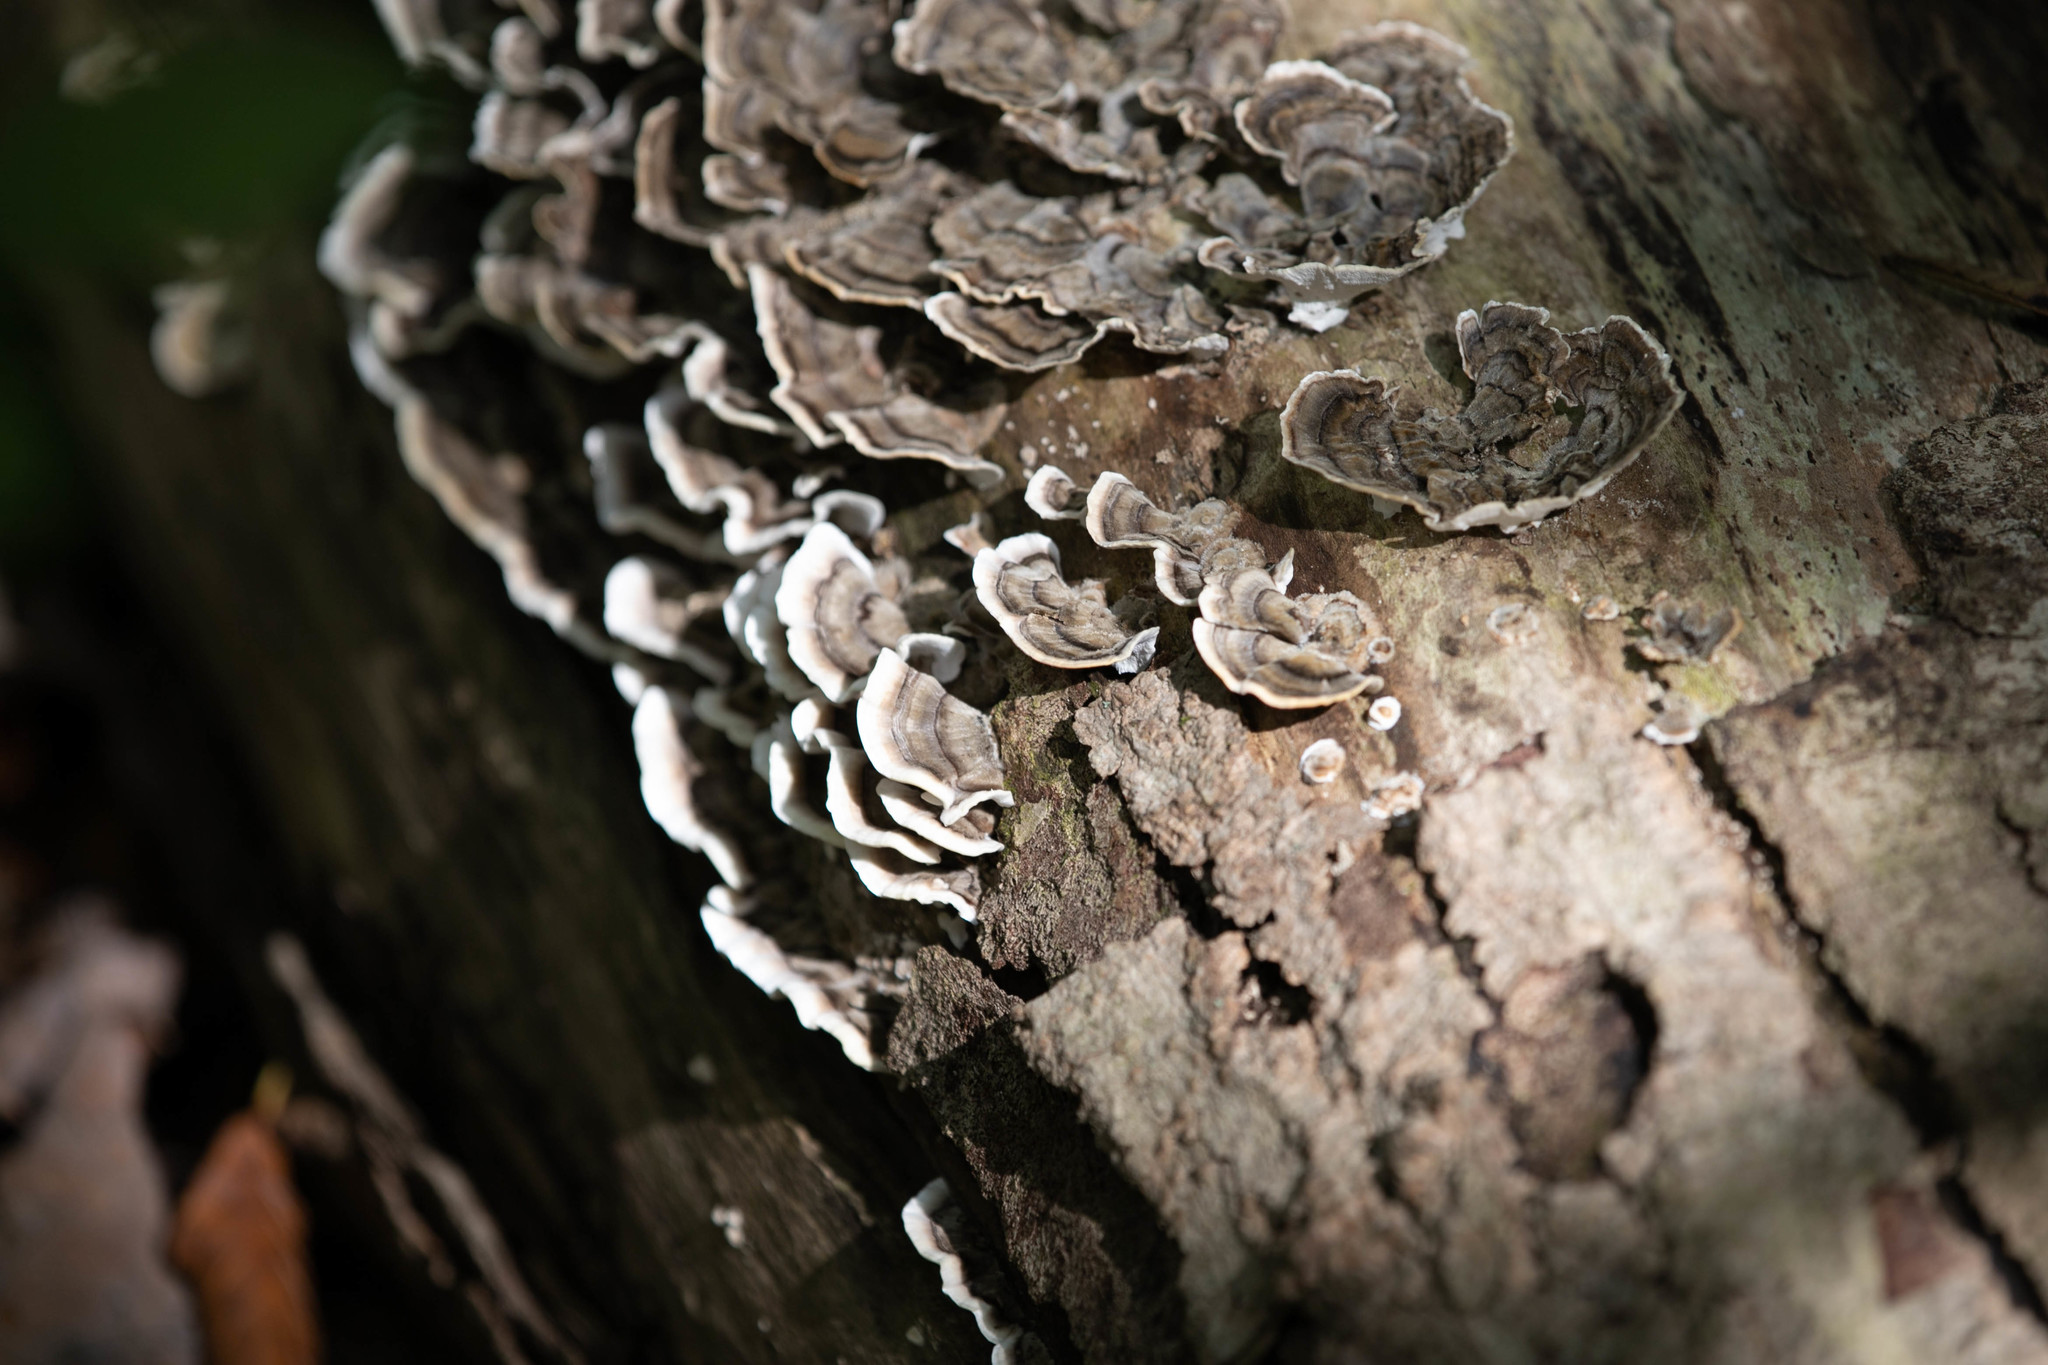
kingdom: Fungi
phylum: Basidiomycota
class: Agaricomycetes
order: Polyporales
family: Polyporaceae
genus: Trametes
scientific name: Trametes versicolor
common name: Turkeytail
